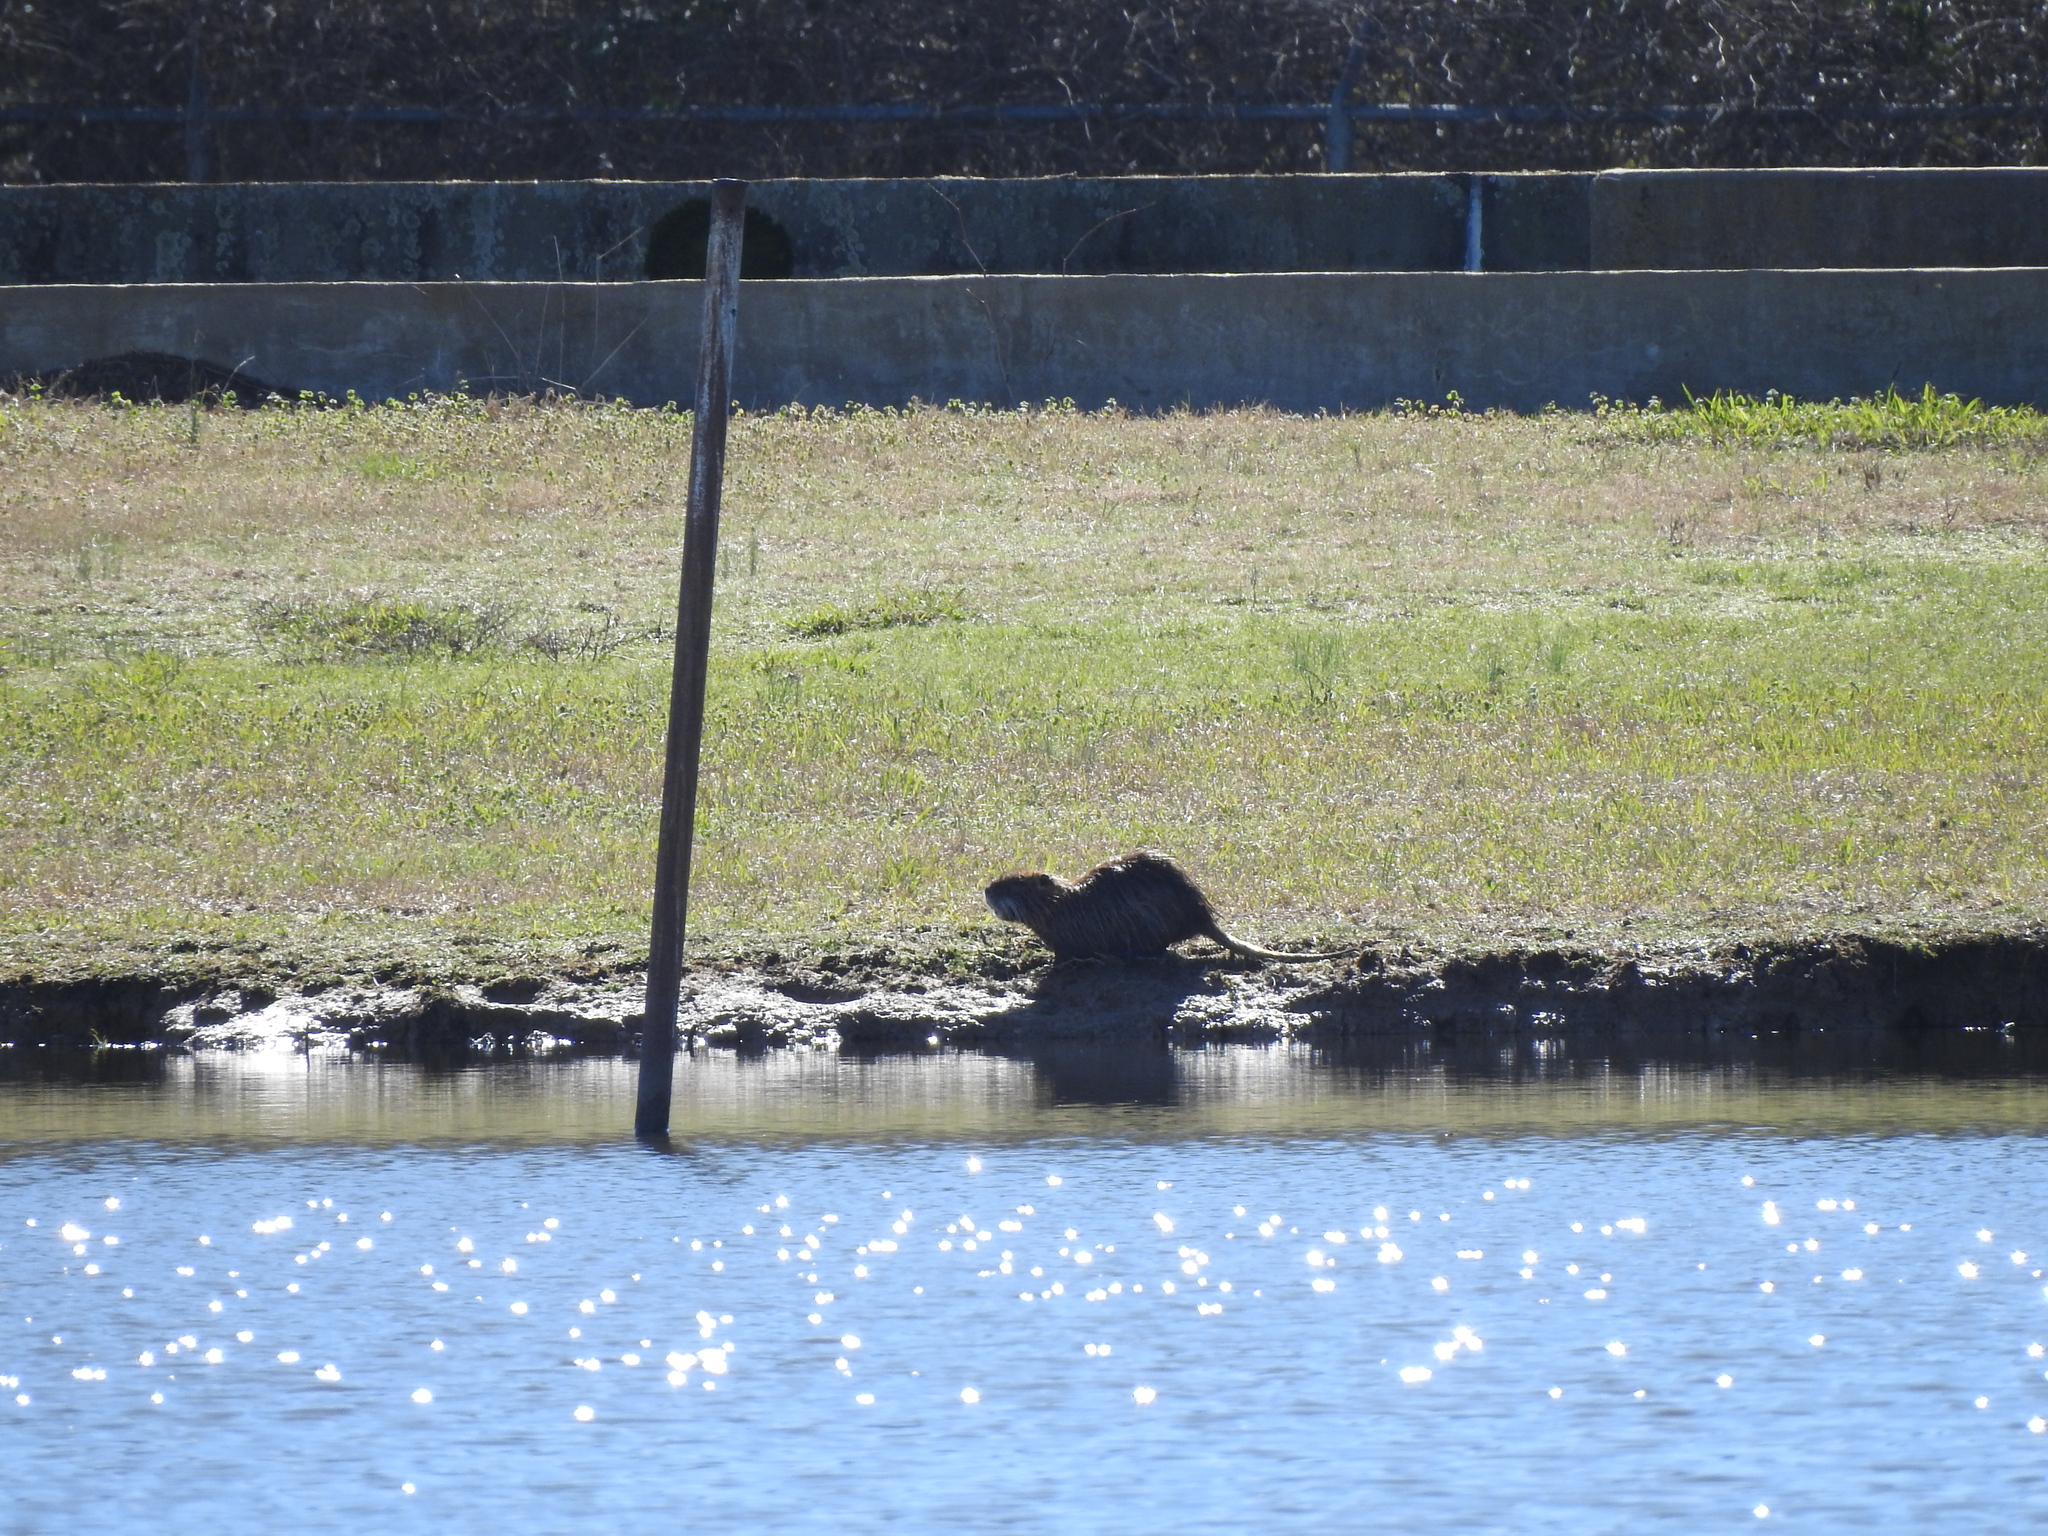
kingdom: Animalia
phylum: Chordata
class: Mammalia
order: Rodentia
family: Myocastoridae
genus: Myocastor
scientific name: Myocastor coypus
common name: Coypu
